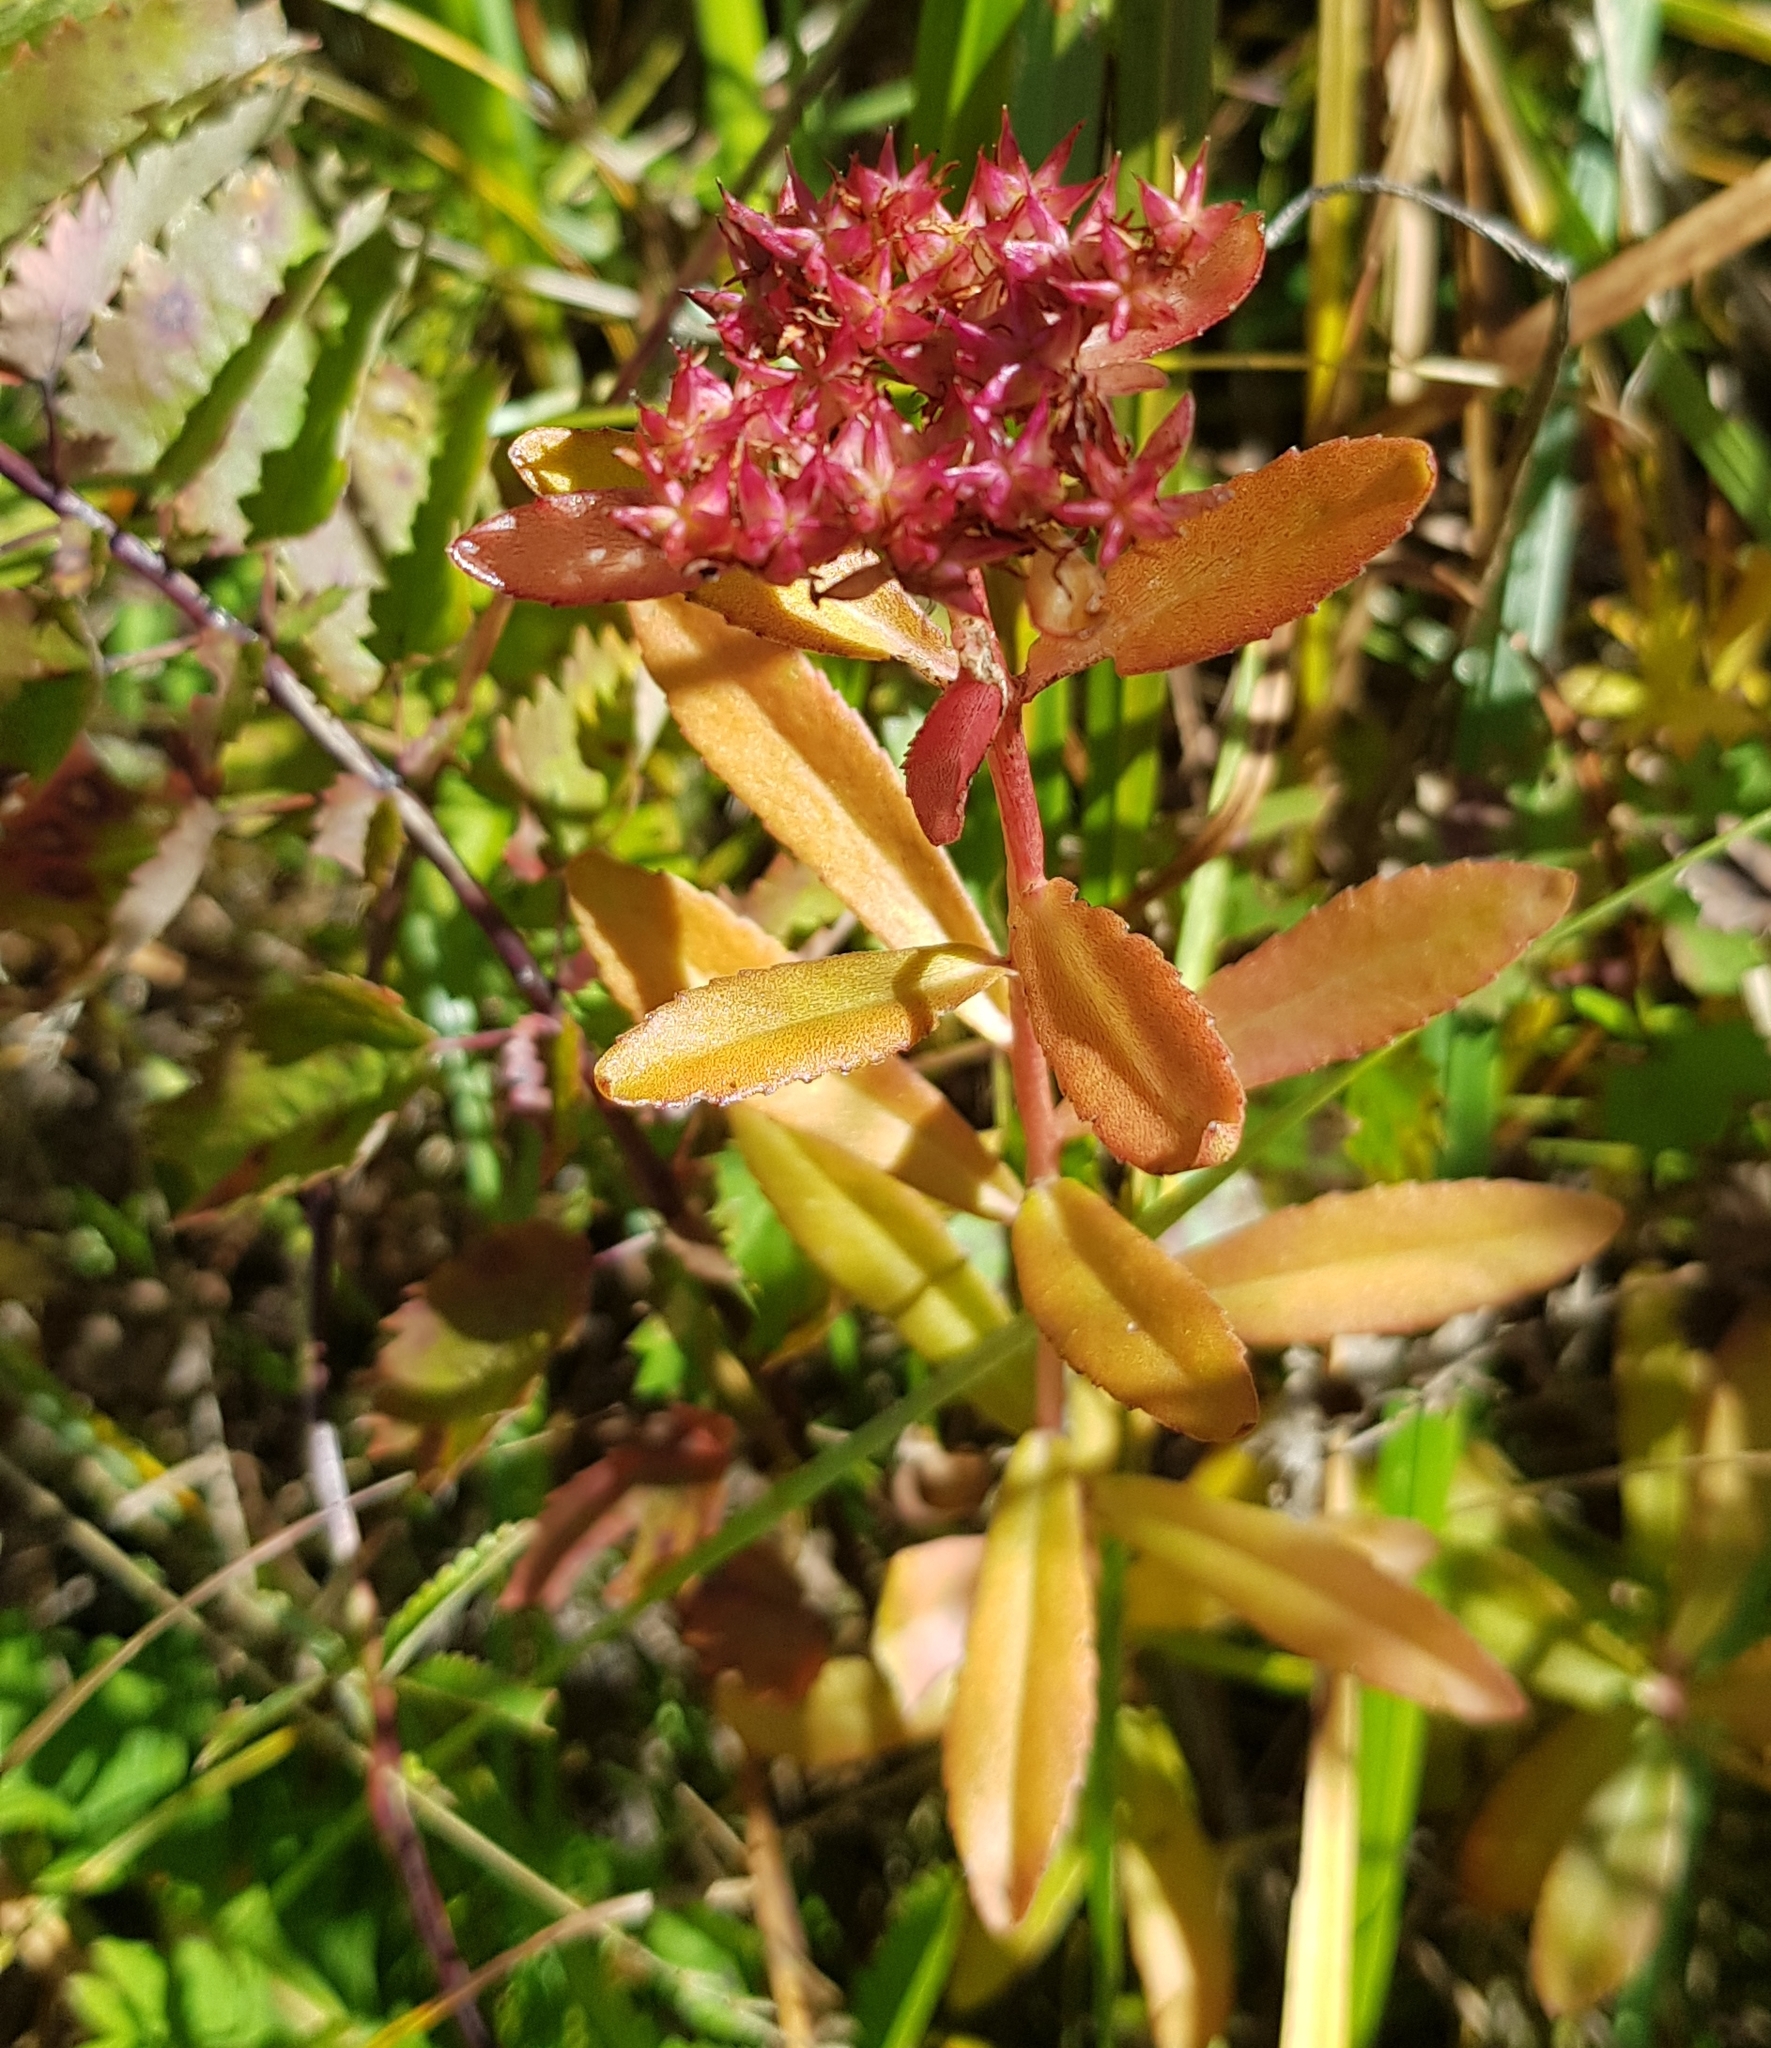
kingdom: Plantae
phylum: Tracheophyta
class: Magnoliopsida
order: Saxifragales
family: Crassulaceae
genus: Phedimus
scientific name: Phedimus aizoon
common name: Orpin aizoon
